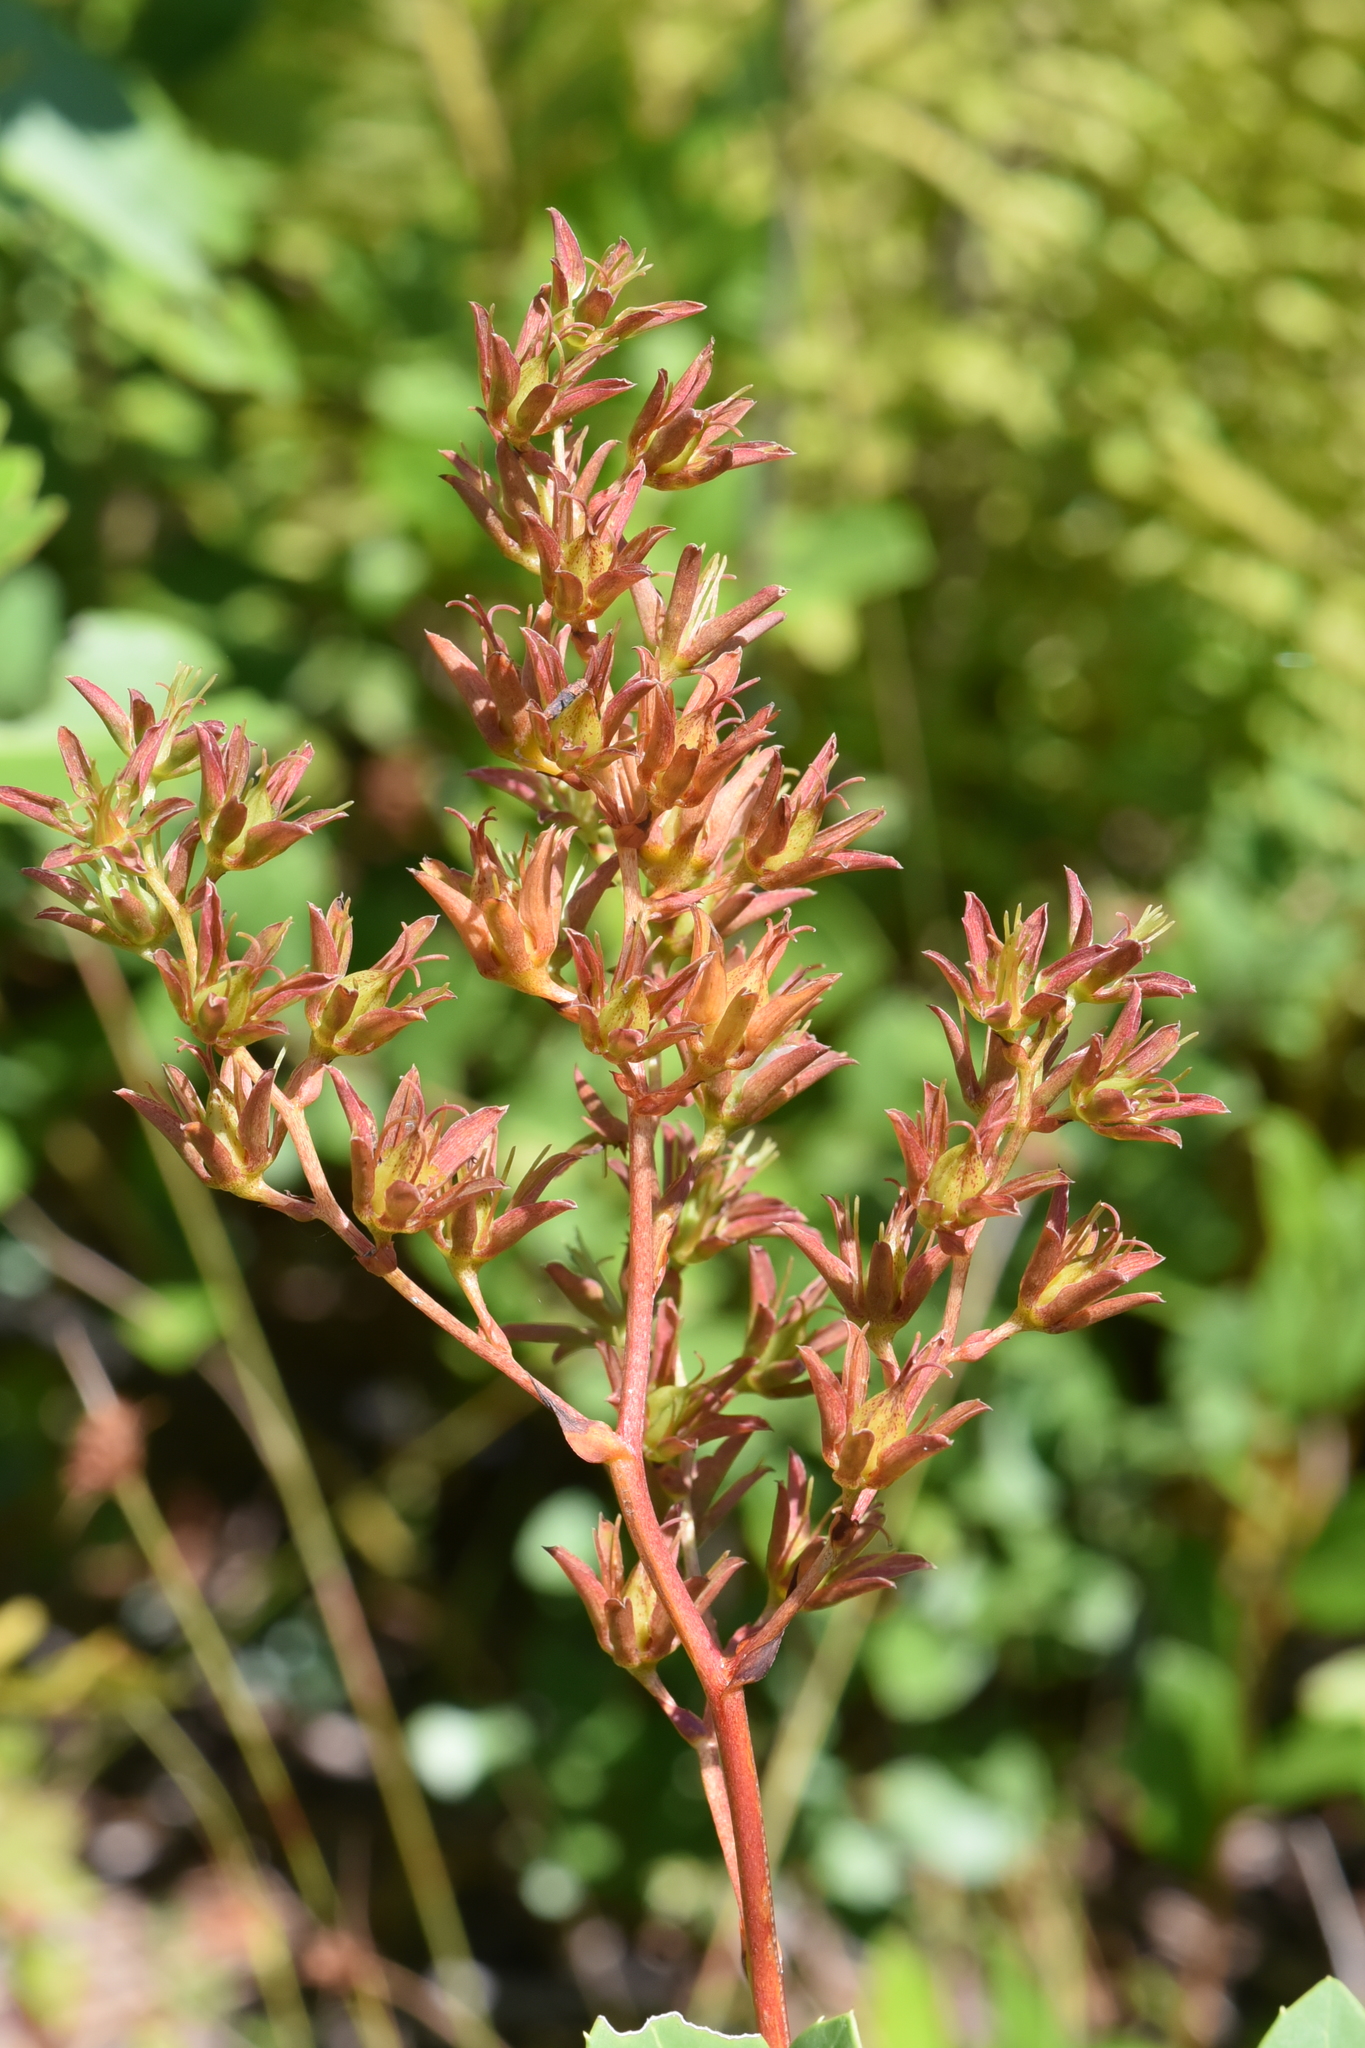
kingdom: Plantae
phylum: Tracheophyta
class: Liliopsida
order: Liliales
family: Melanthiaceae
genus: Zigadenus
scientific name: Zigadenus glaberrimus
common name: Sandbog death camas
